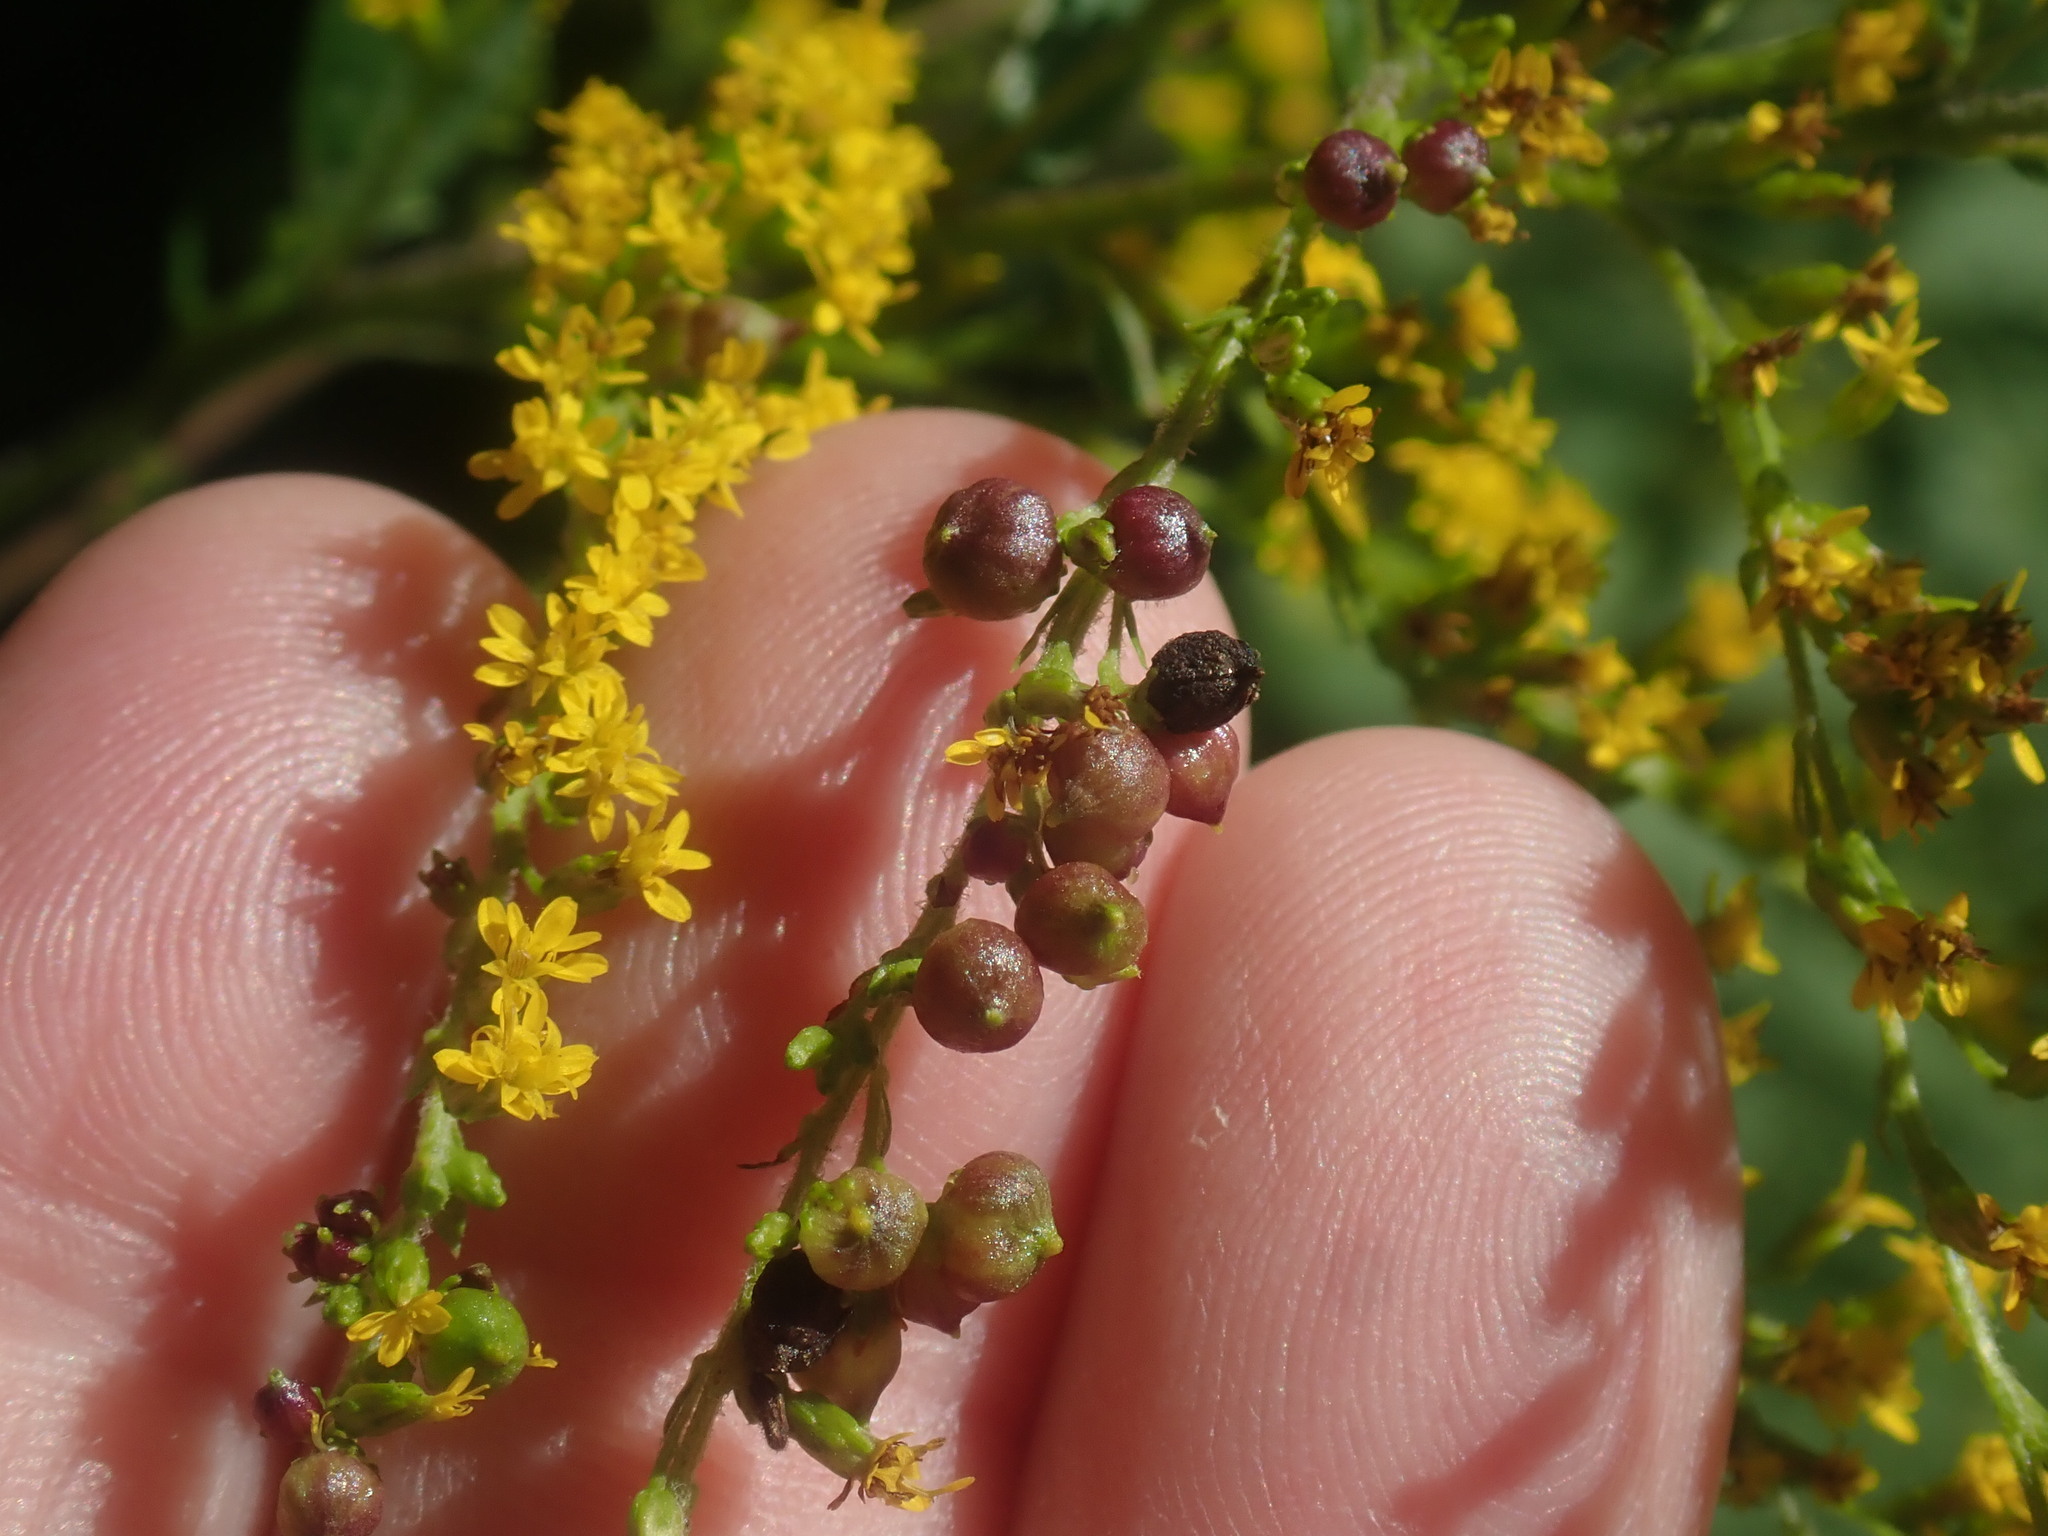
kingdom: Animalia
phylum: Arthropoda
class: Insecta
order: Diptera
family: Cecidomyiidae
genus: Schizomyia
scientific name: Schizomyia racemicola
